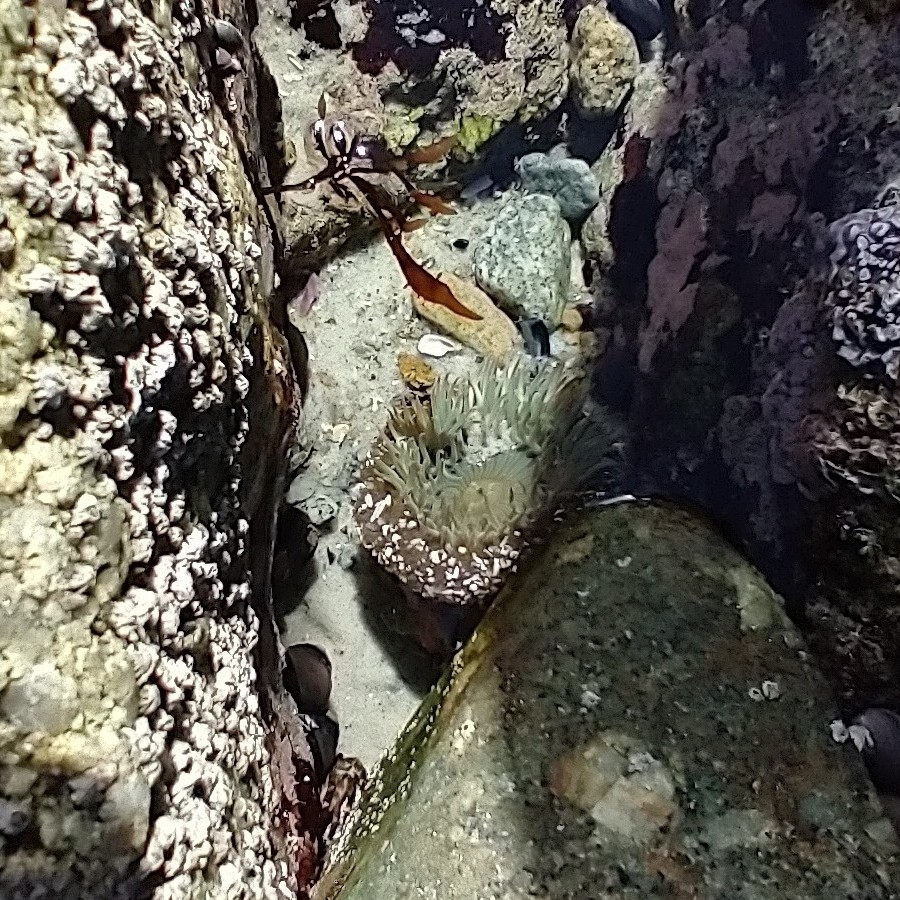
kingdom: Animalia
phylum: Cnidaria
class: Anthozoa
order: Actiniaria
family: Actiniidae
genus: Anthopleura
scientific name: Anthopleura sola
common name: Sun anemone
